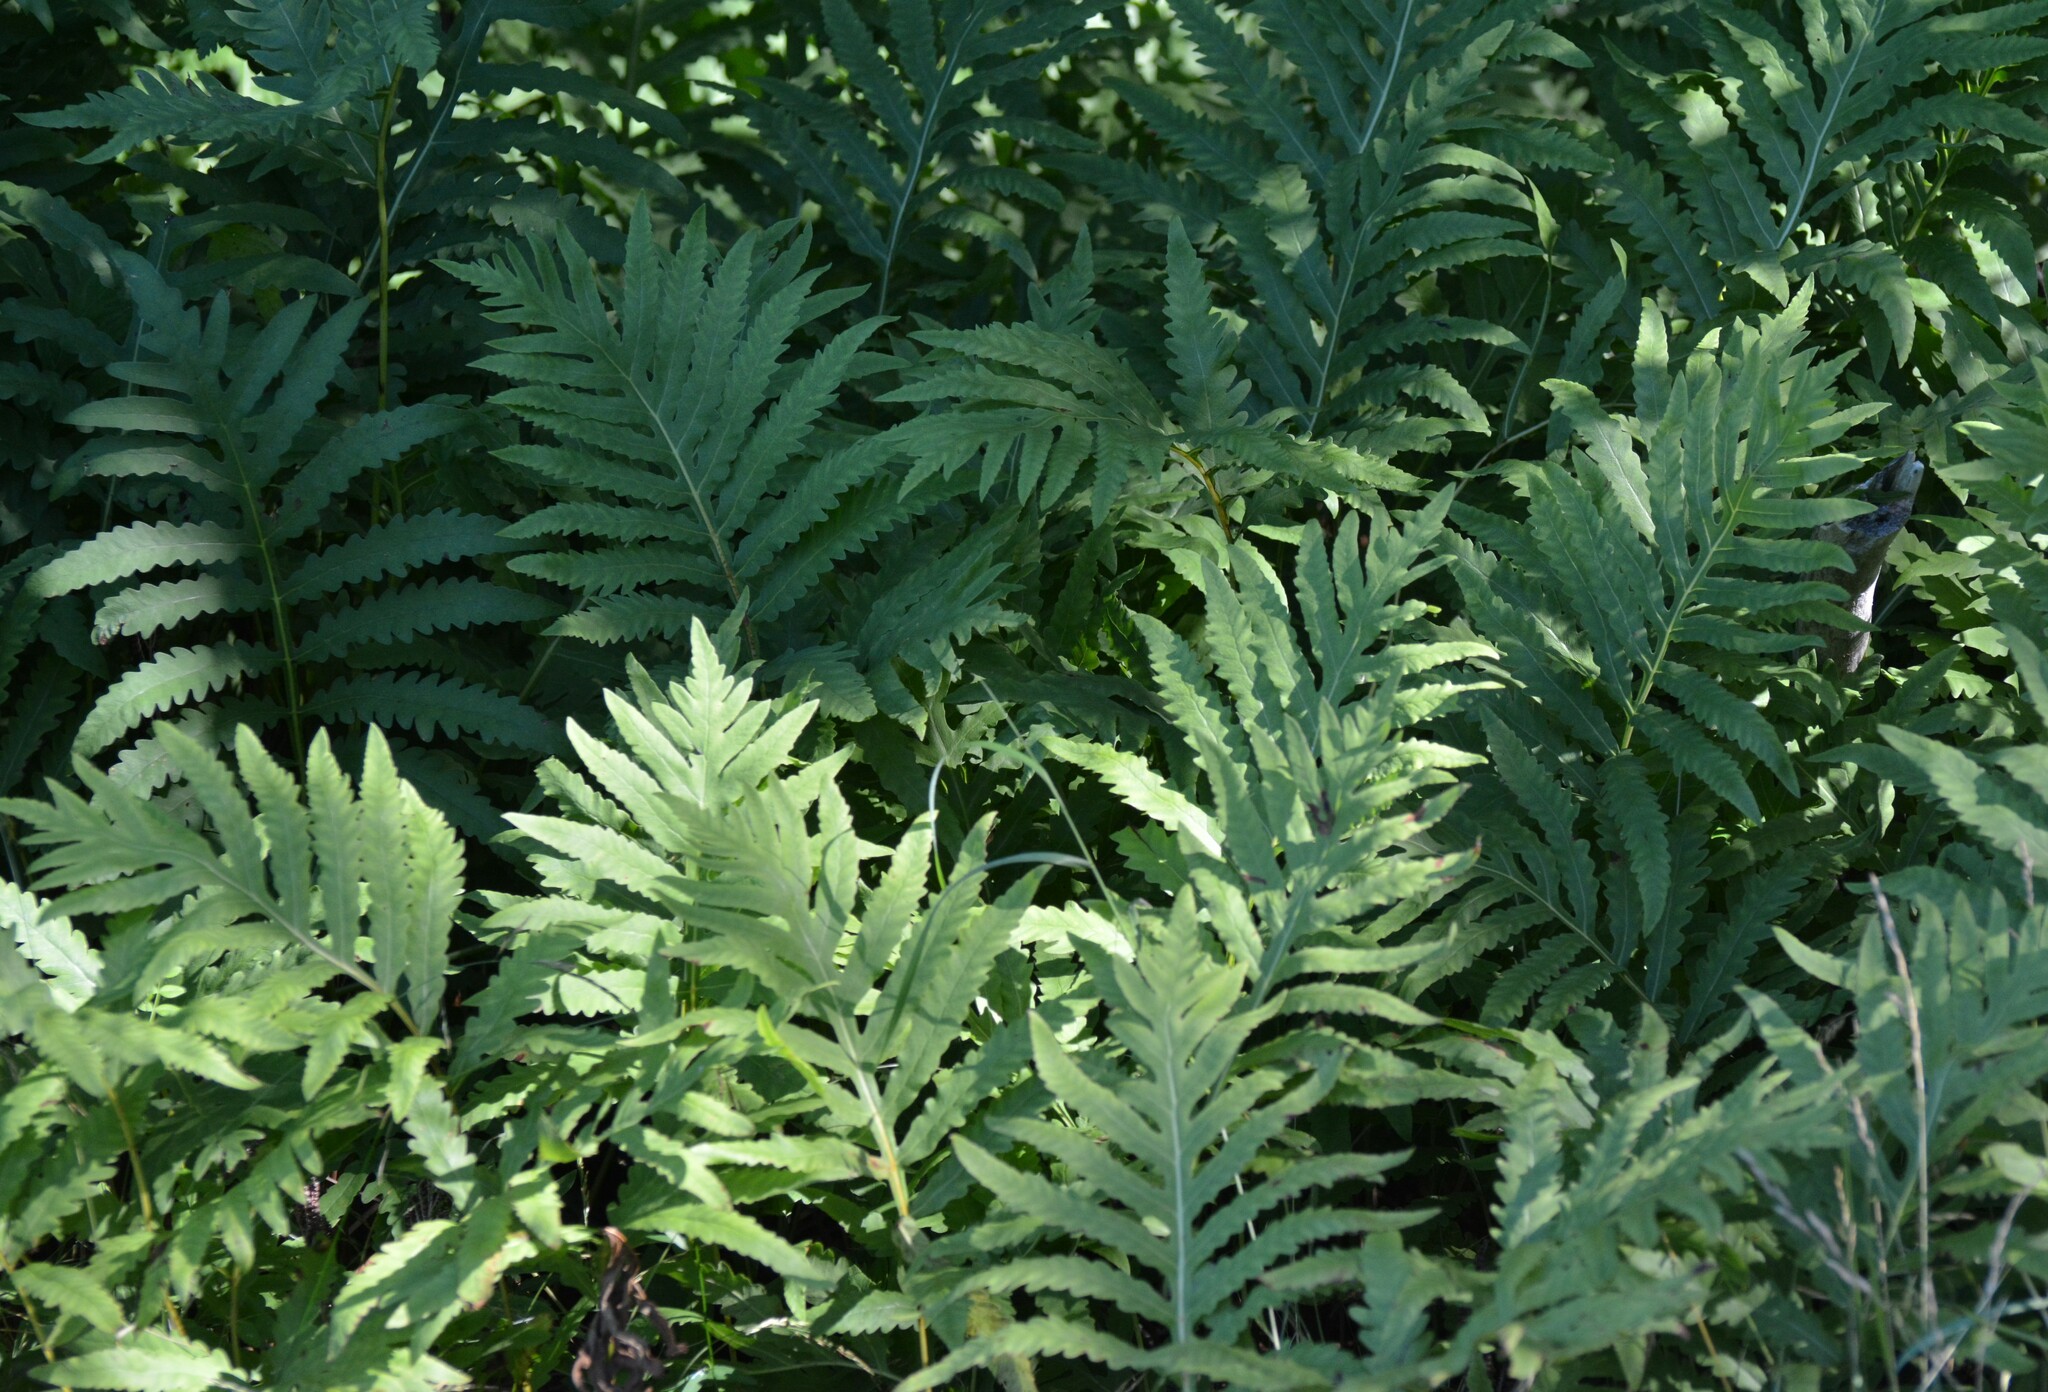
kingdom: Plantae
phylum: Tracheophyta
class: Polypodiopsida
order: Polypodiales
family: Onocleaceae
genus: Onoclea
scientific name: Onoclea sensibilis
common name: Sensitive fern
